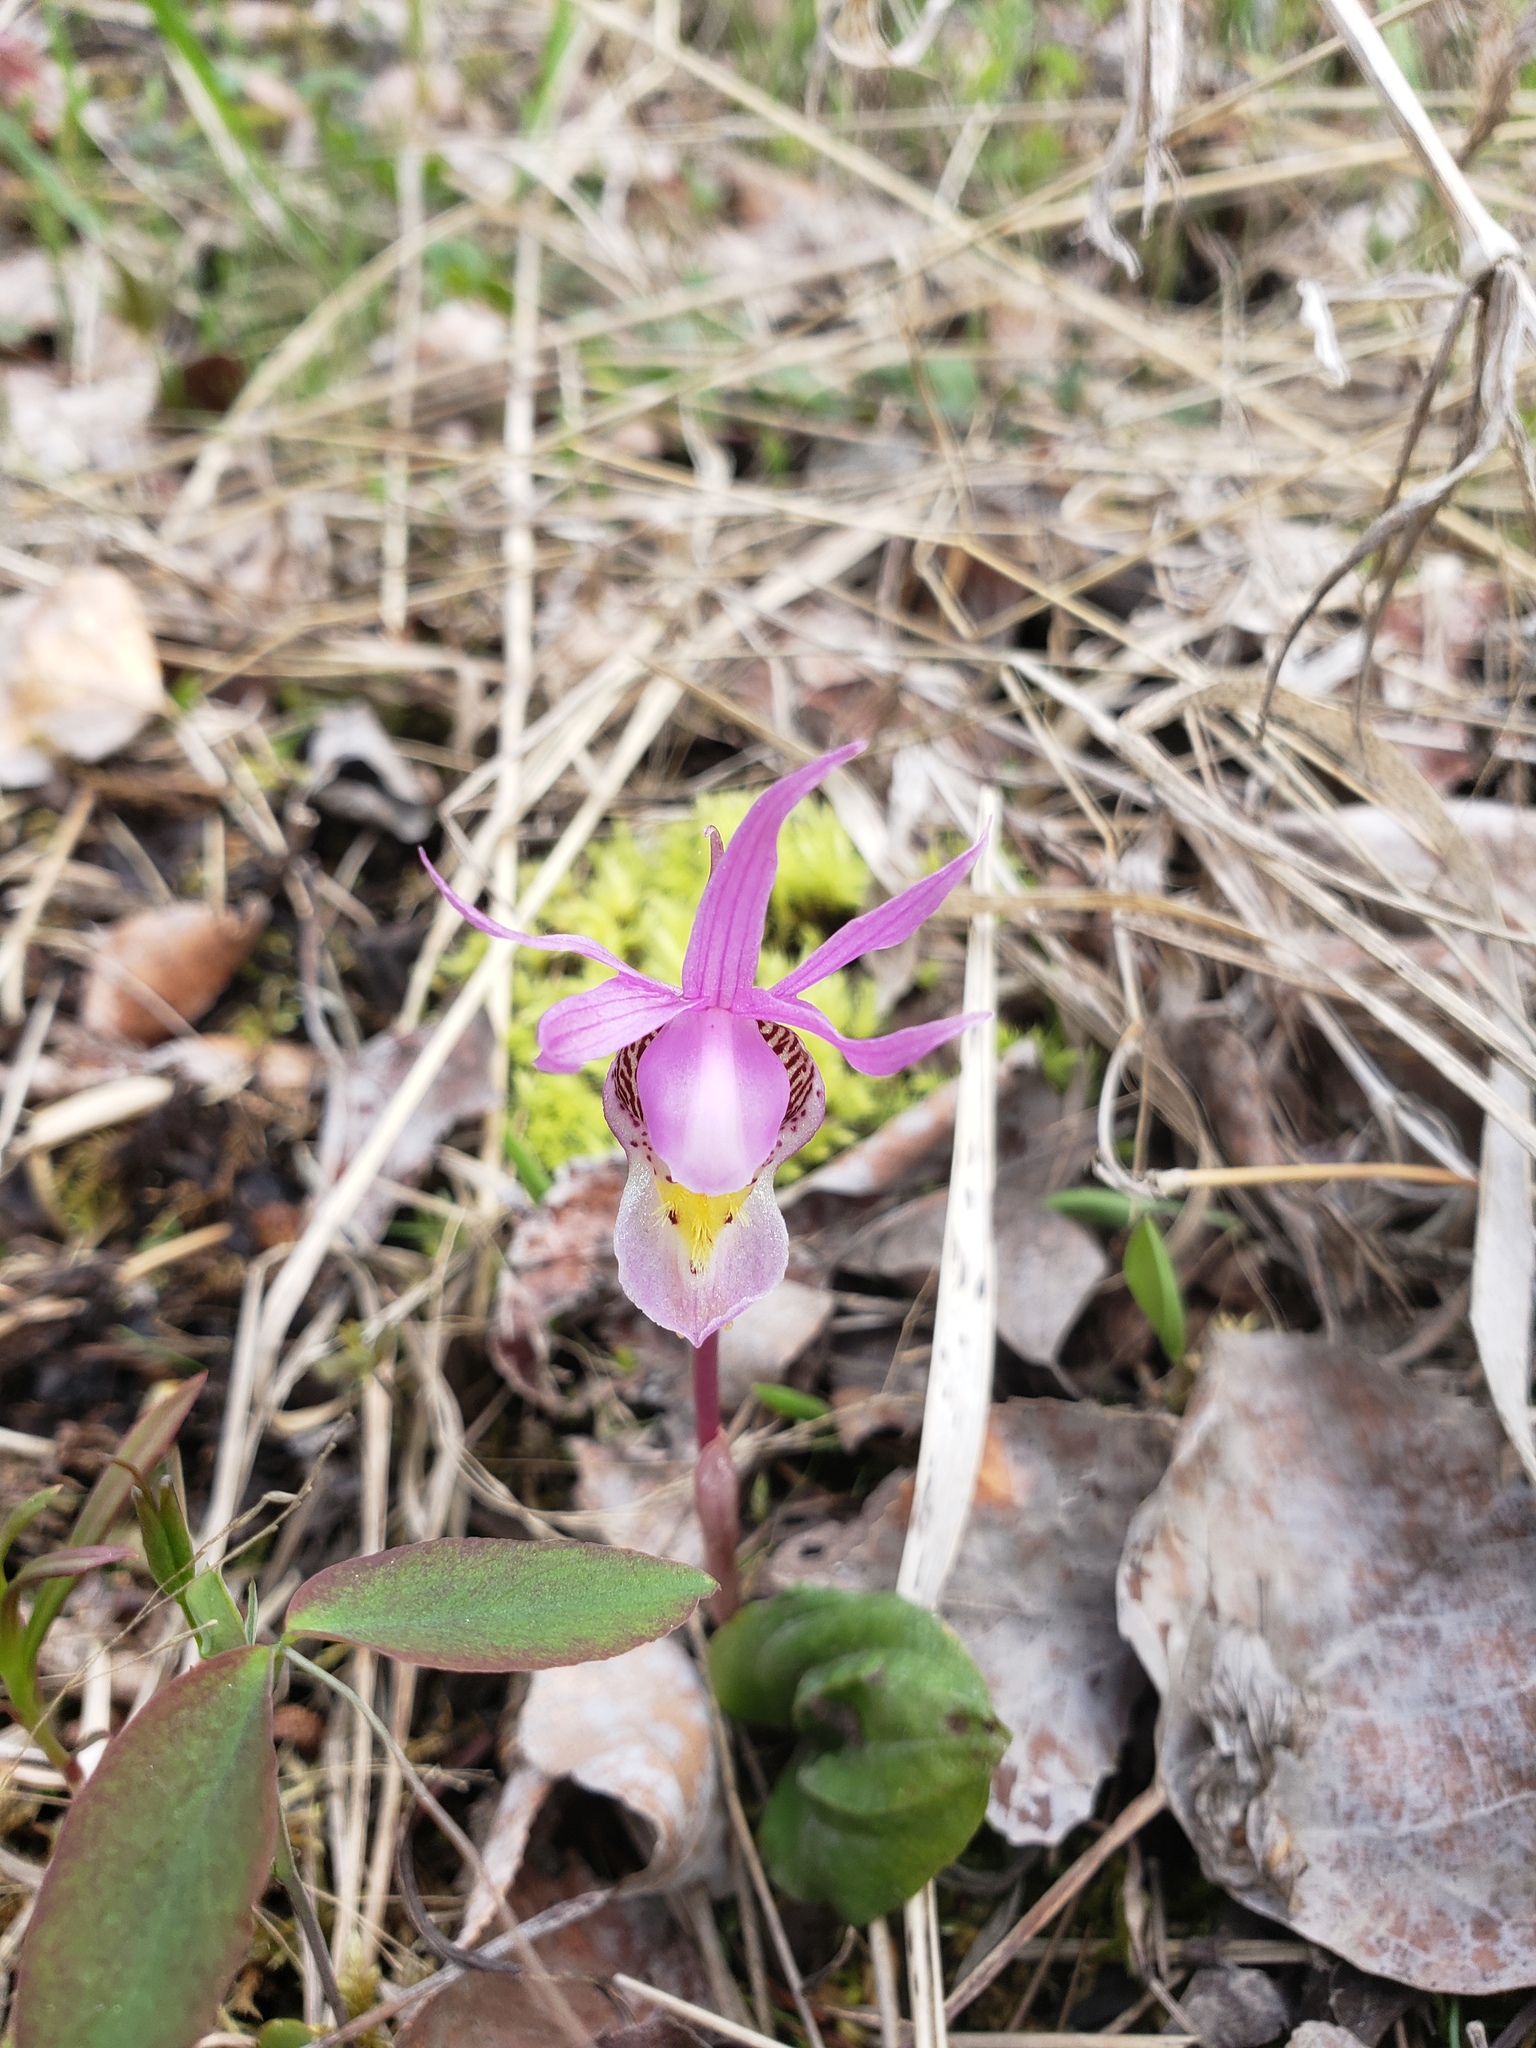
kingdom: Plantae
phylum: Tracheophyta
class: Liliopsida
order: Asparagales
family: Orchidaceae
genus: Calypso
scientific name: Calypso bulbosa
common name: Calypso
